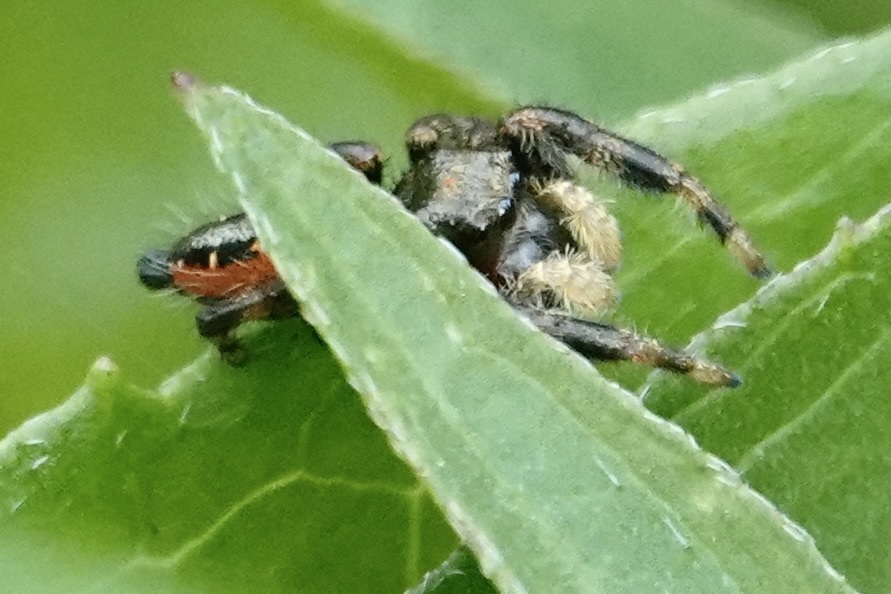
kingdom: Animalia
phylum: Arthropoda
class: Arachnida
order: Araneae
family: Salticidae
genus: Phidippus
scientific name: Phidippus clarus
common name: Brilliant jumping spider
